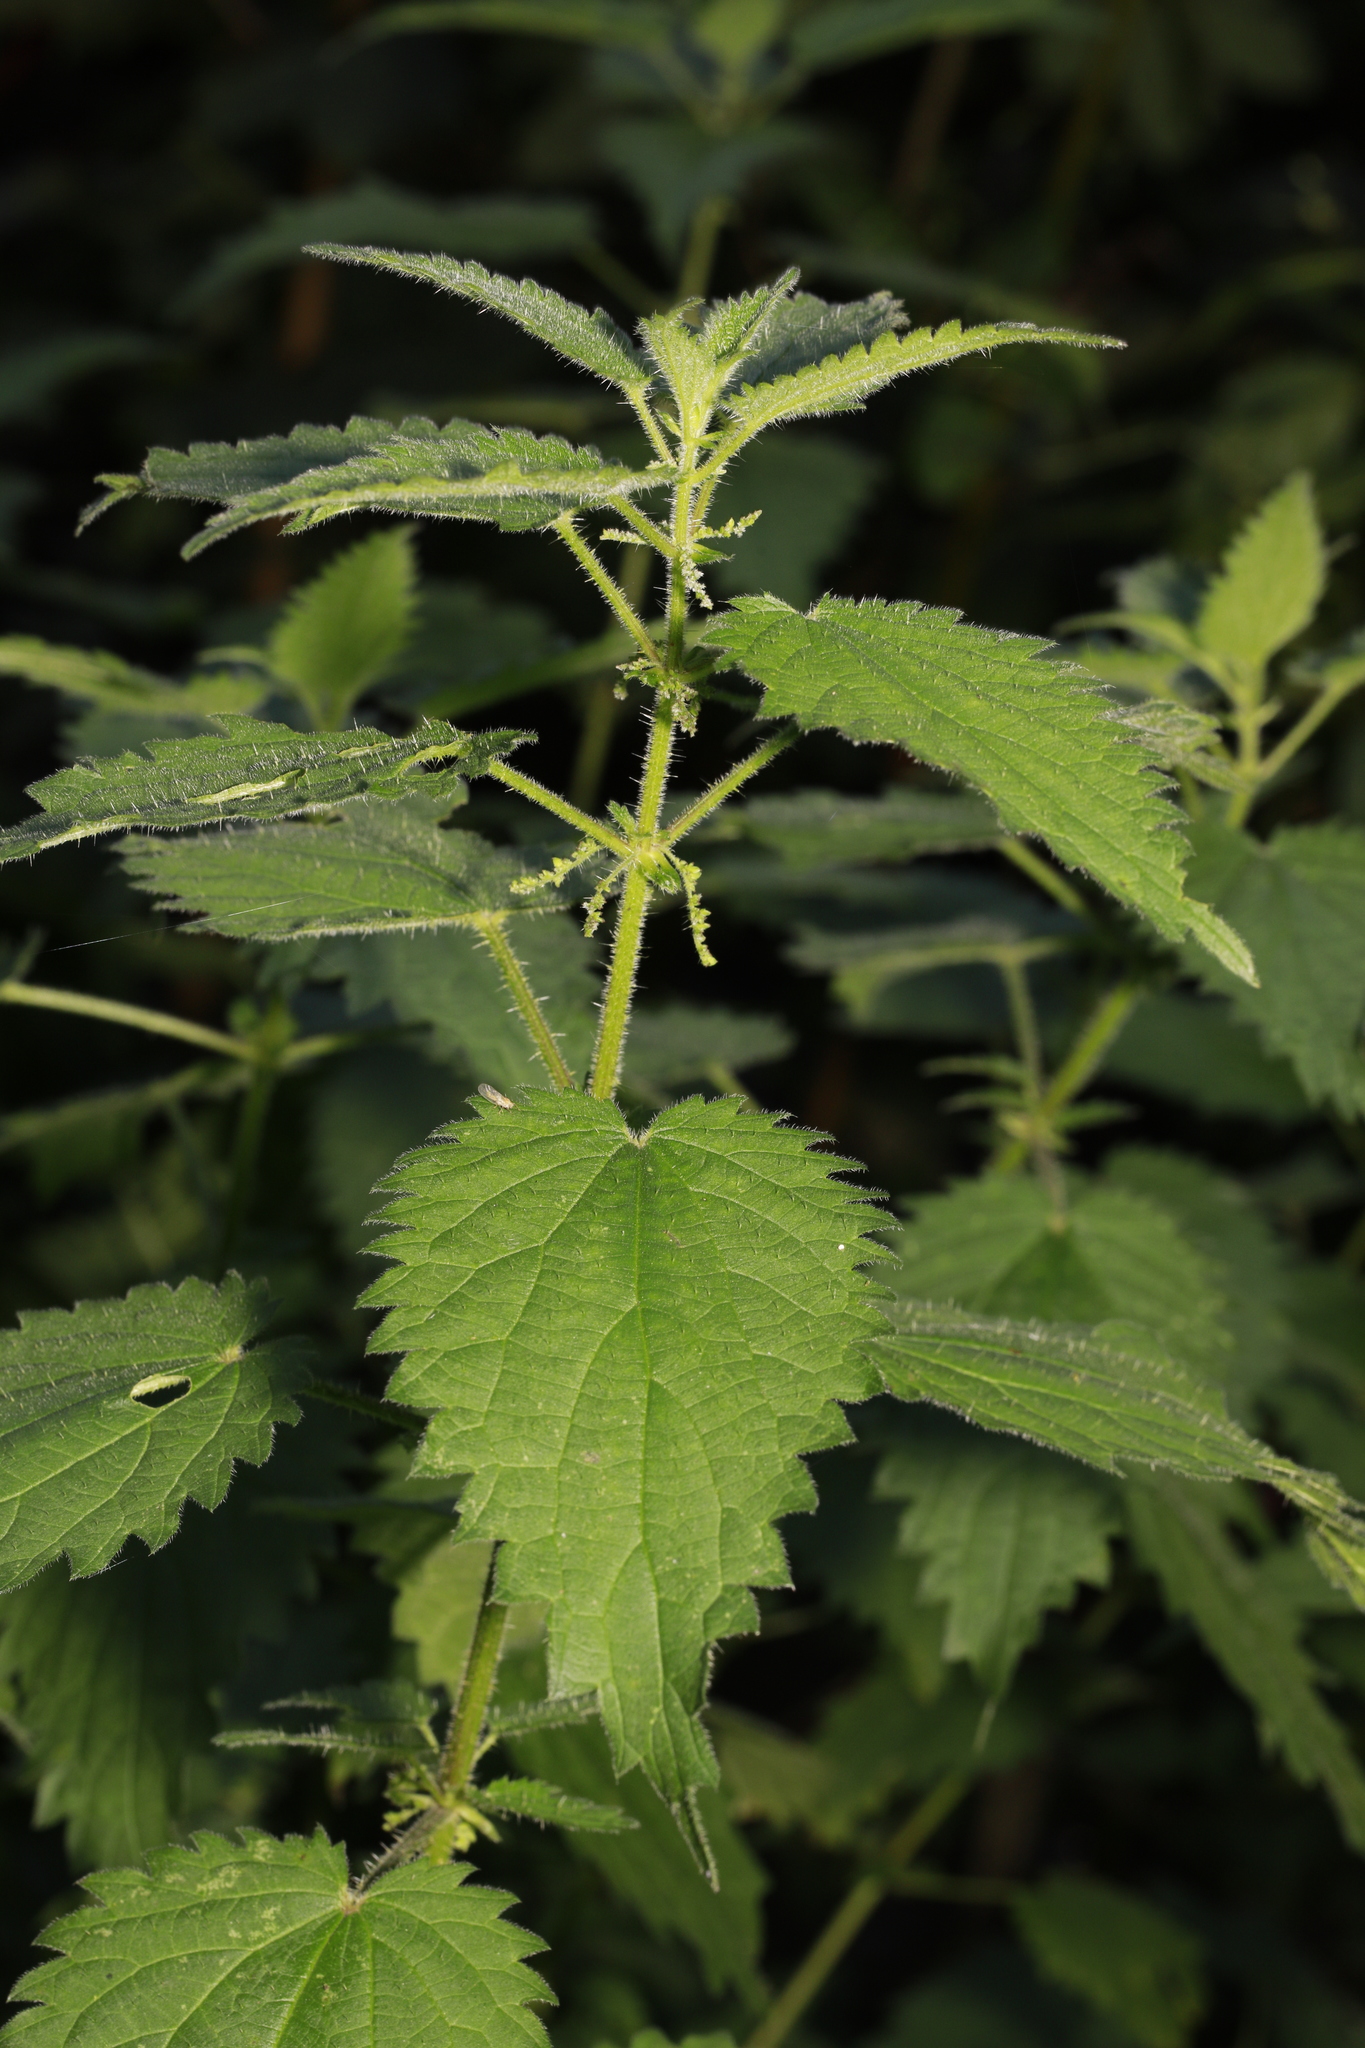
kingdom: Plantae
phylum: Tracheophyta
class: Magnoliopsida
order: Rosales
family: Urticaceae
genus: Urtica
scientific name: Urtica dioica
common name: Common nettle
